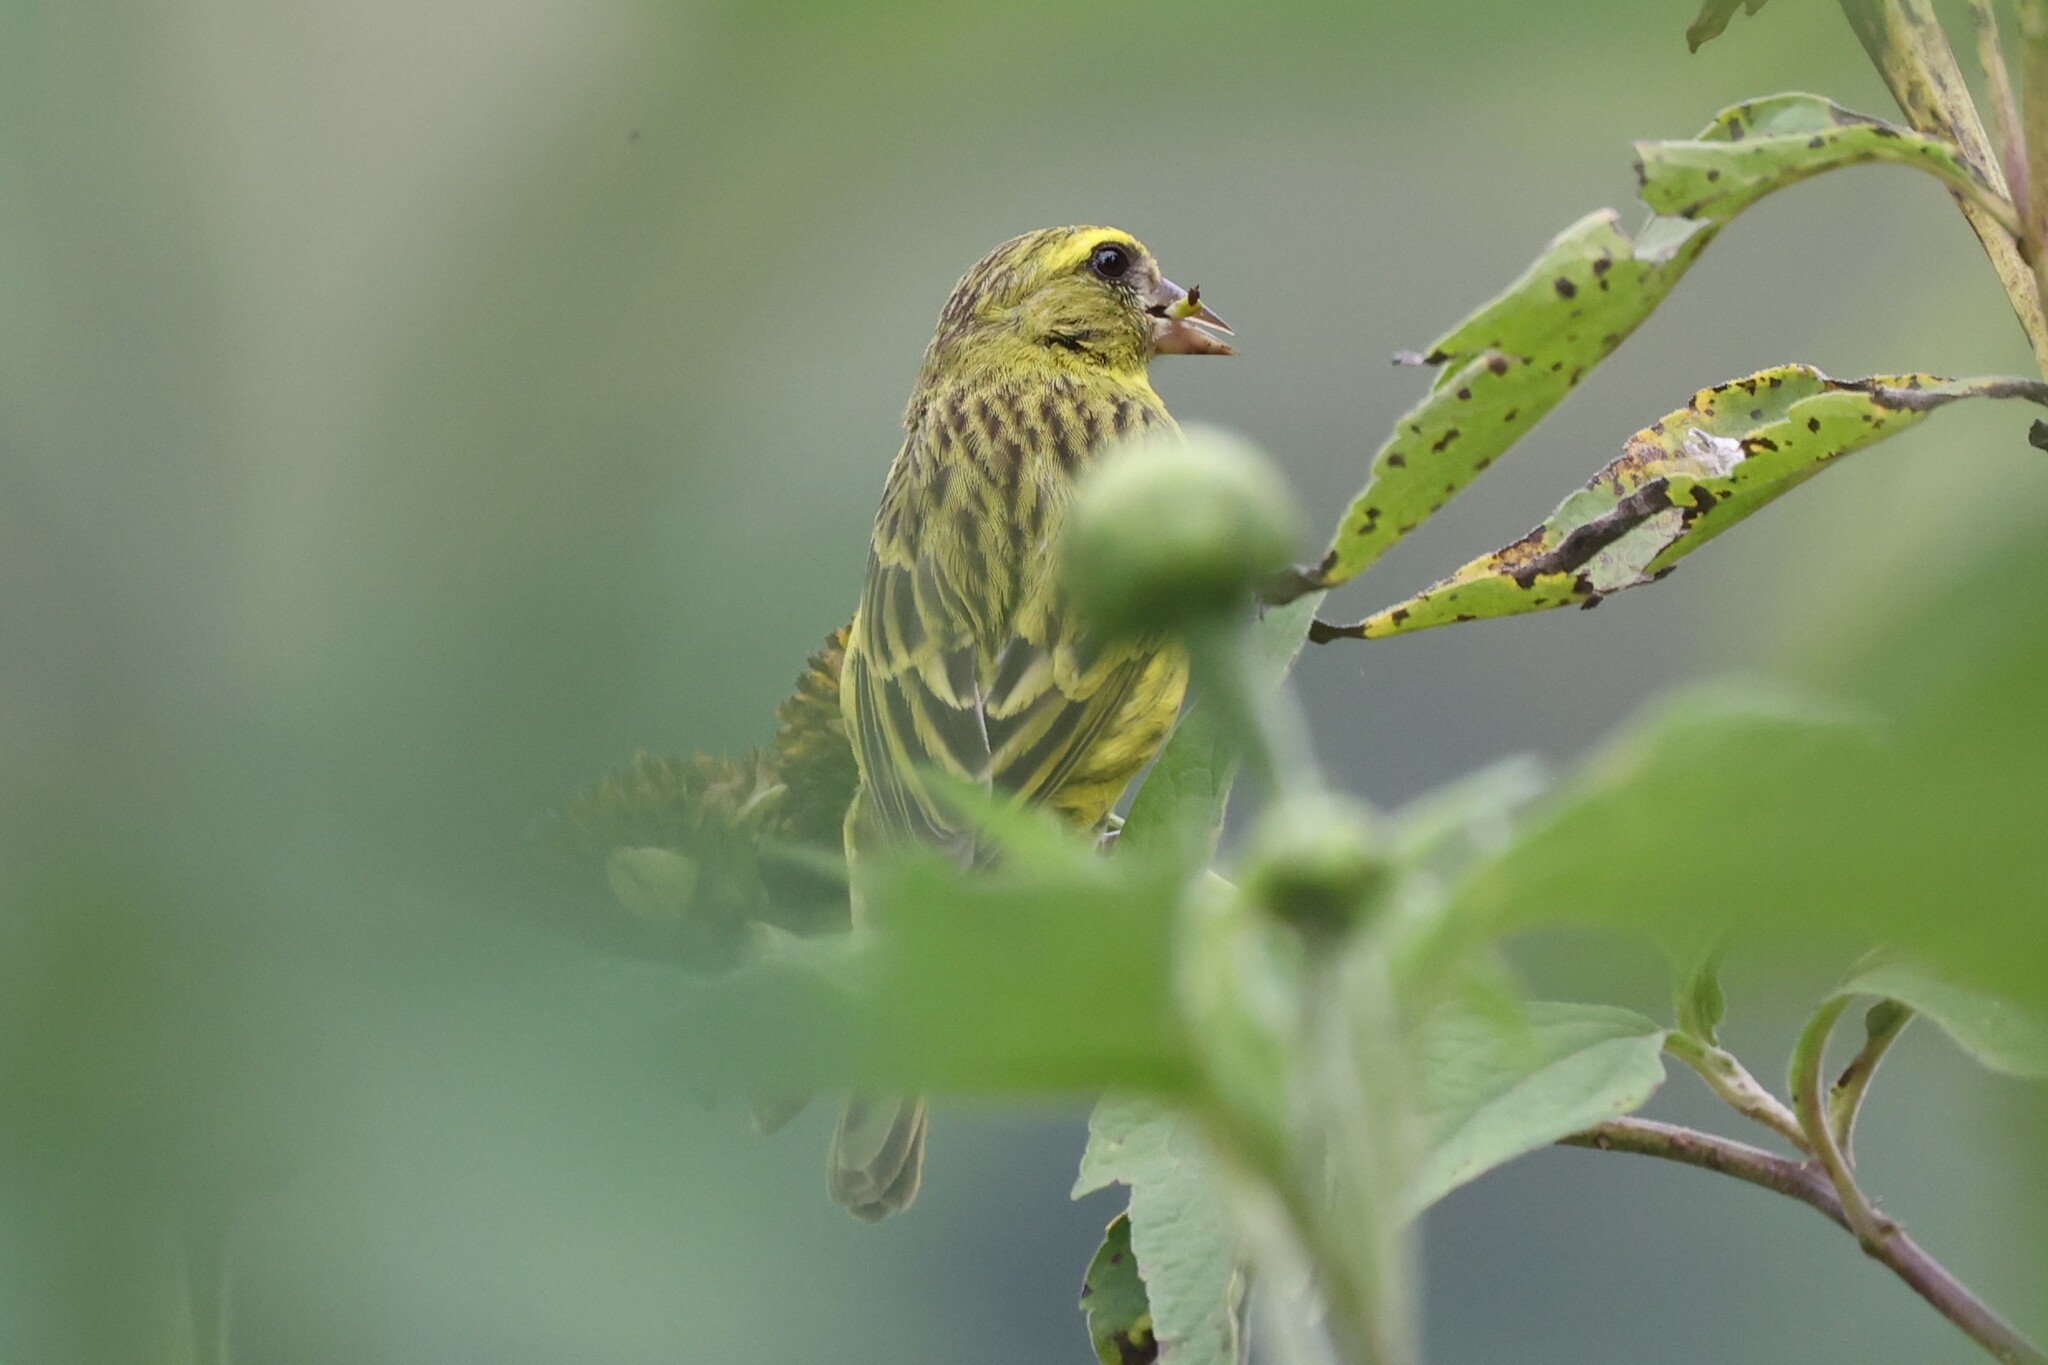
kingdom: Animalia
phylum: Chordata
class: Aves
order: Passeriformes
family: Fringillidae
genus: Crithagra
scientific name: Crithagra frontalis
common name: Western citril
